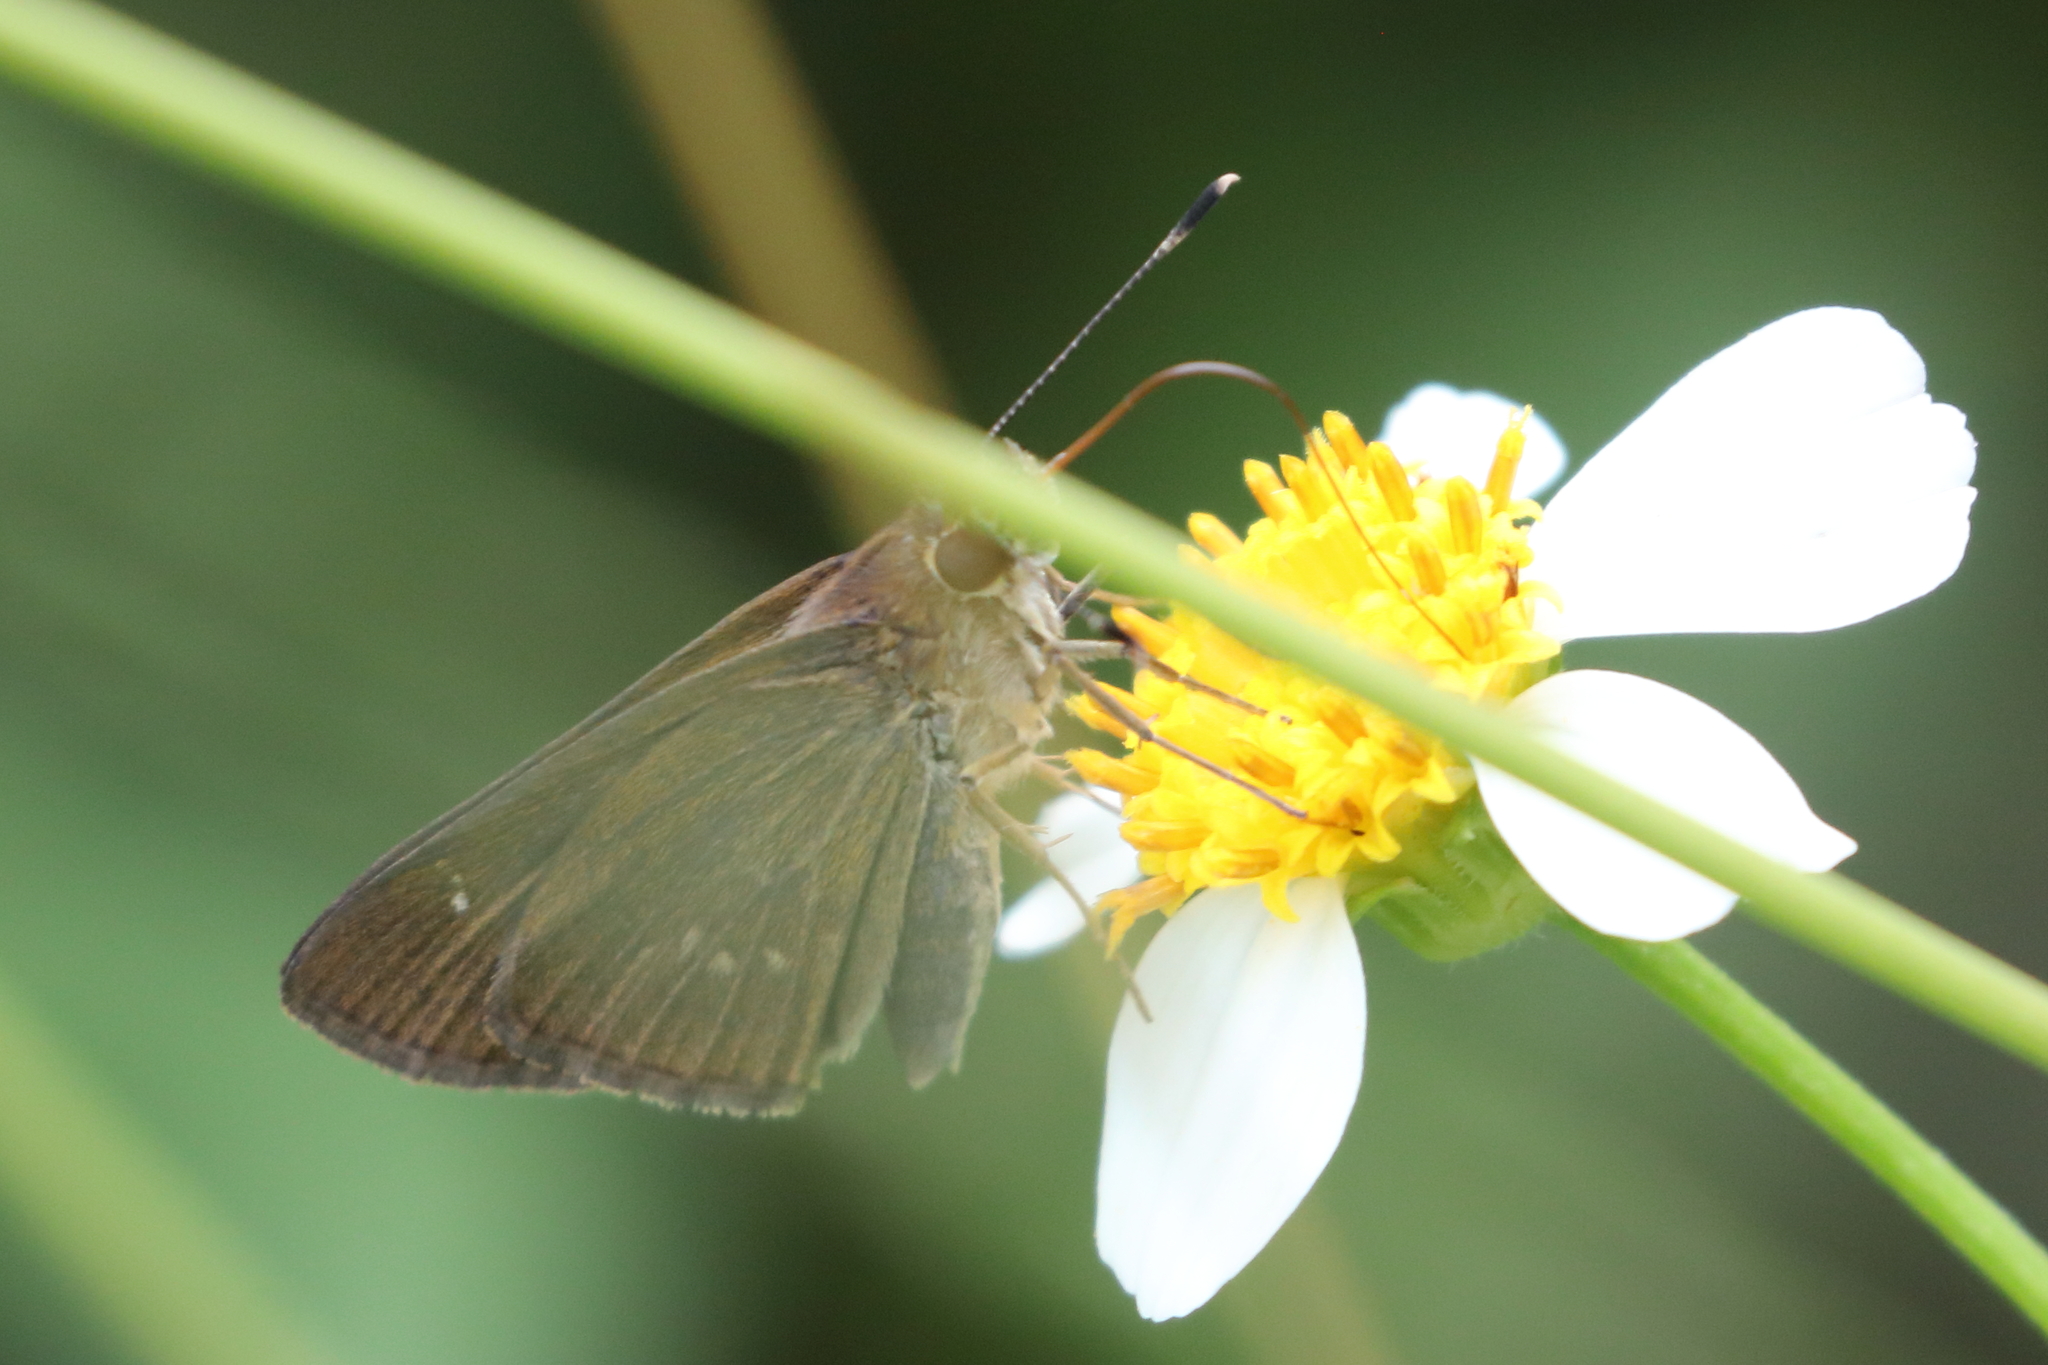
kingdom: Animalia
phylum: Arthropoda
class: Insecta
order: Lepidoptera
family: Hesperiidae
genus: Cymaenes
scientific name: Cymaenes tripunctus
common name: Dingy dotted skipper
